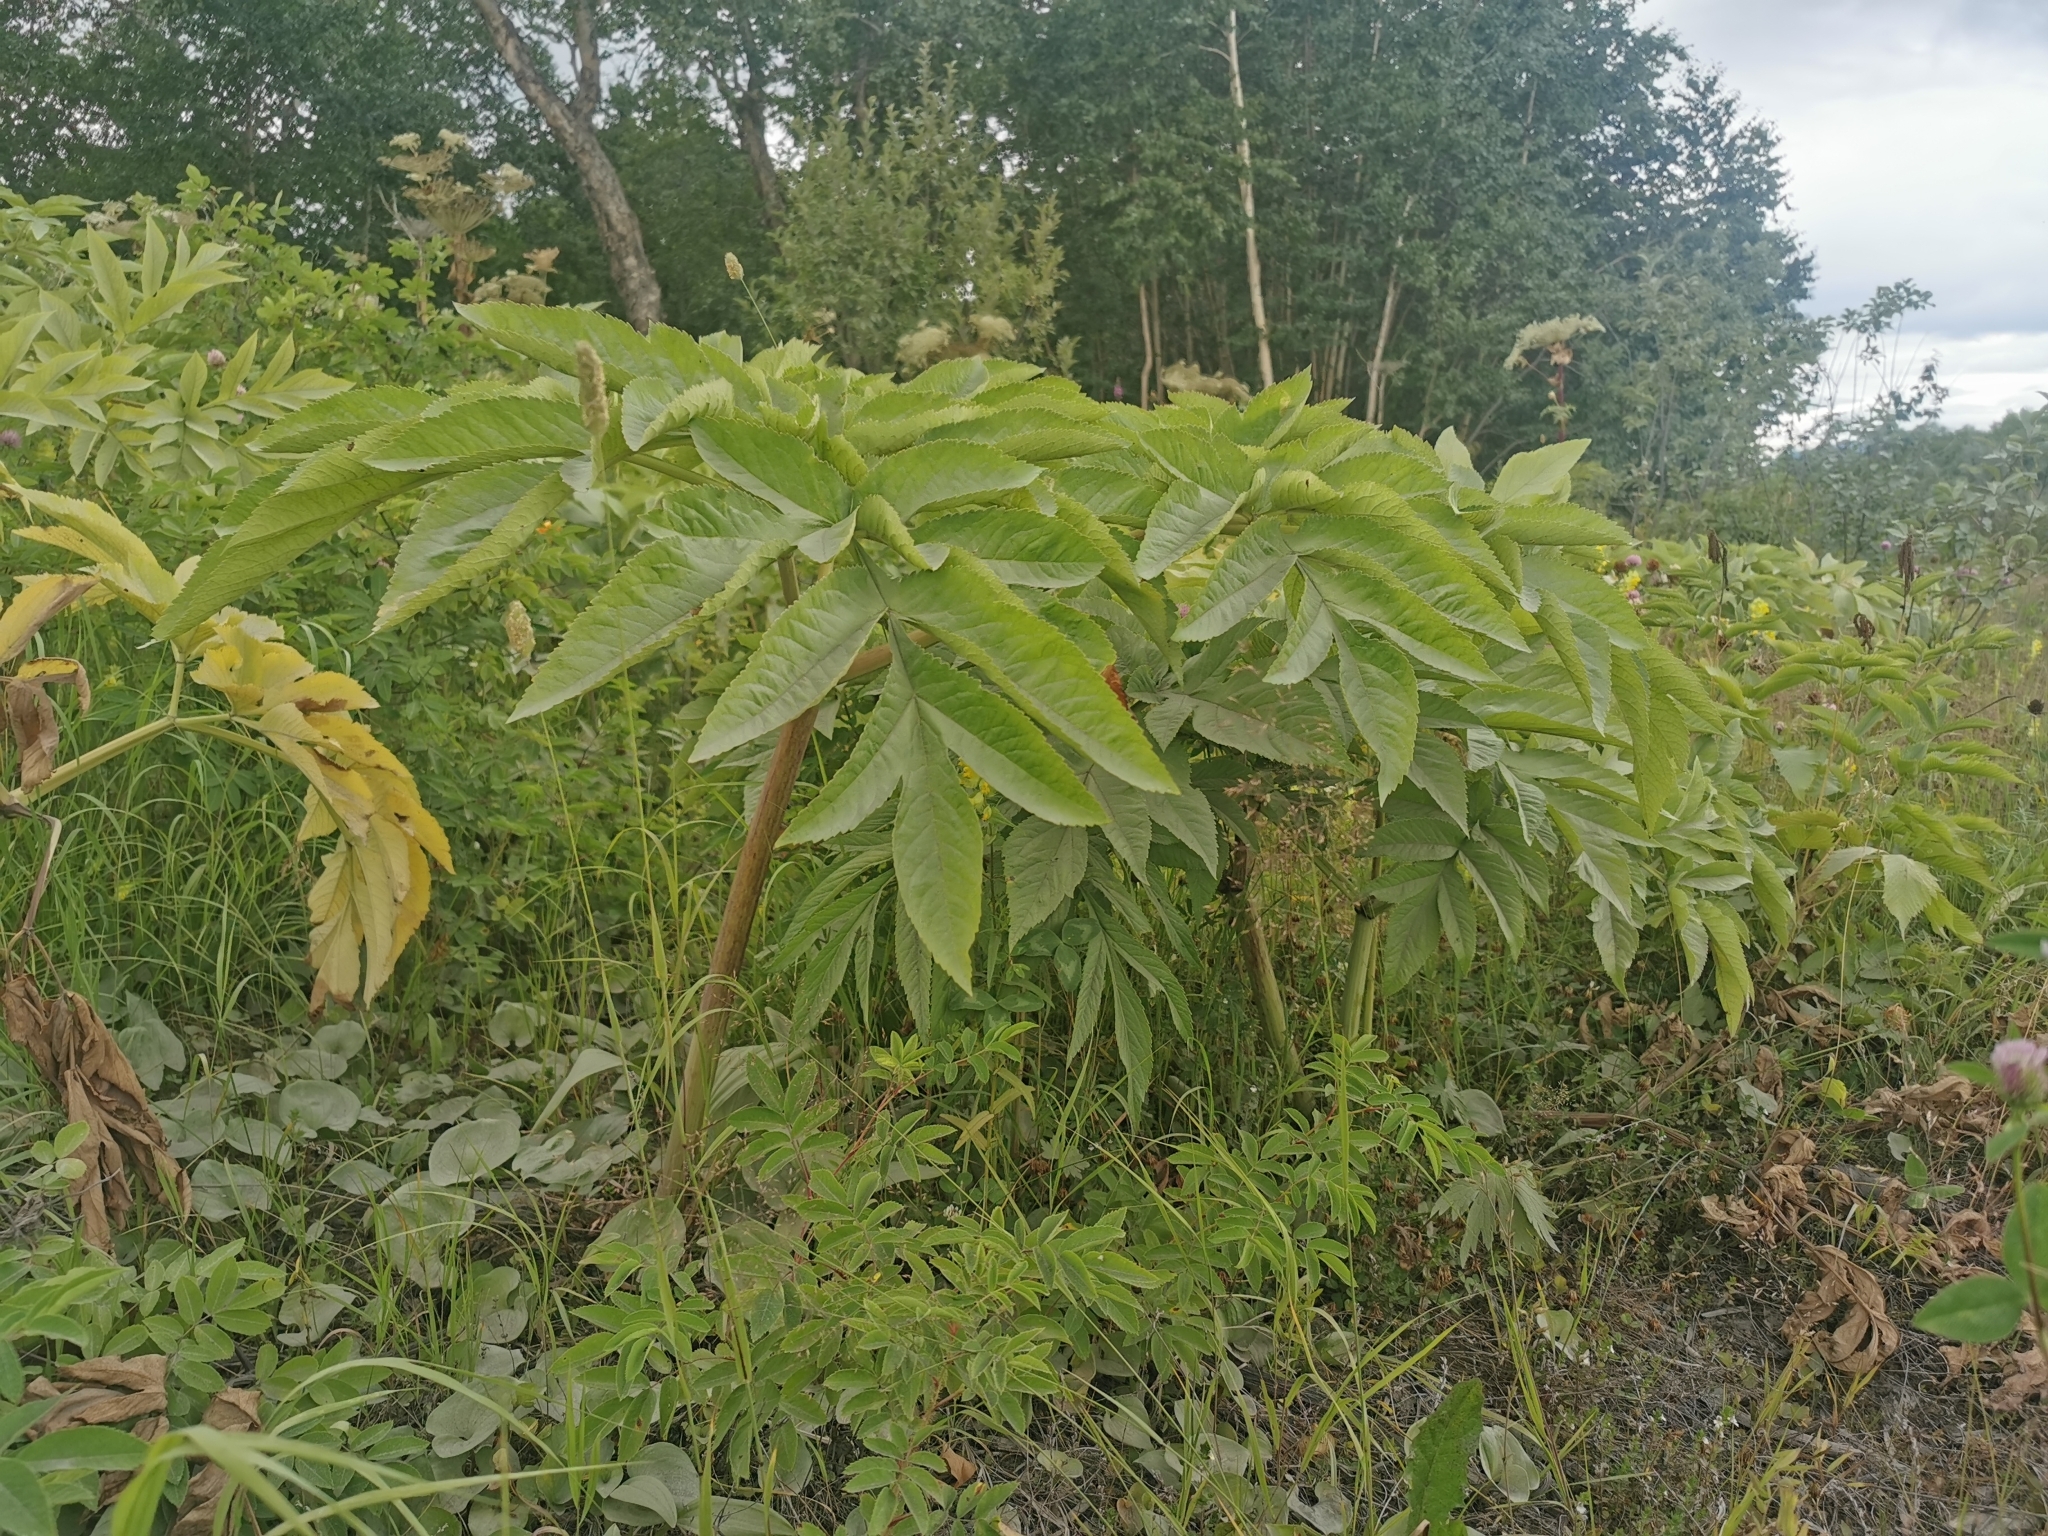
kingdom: Plantae
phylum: Tracheophyta
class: Magnoliopsida
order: Apiales
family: Apiaceae
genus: Angelica
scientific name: Angelica ursina
